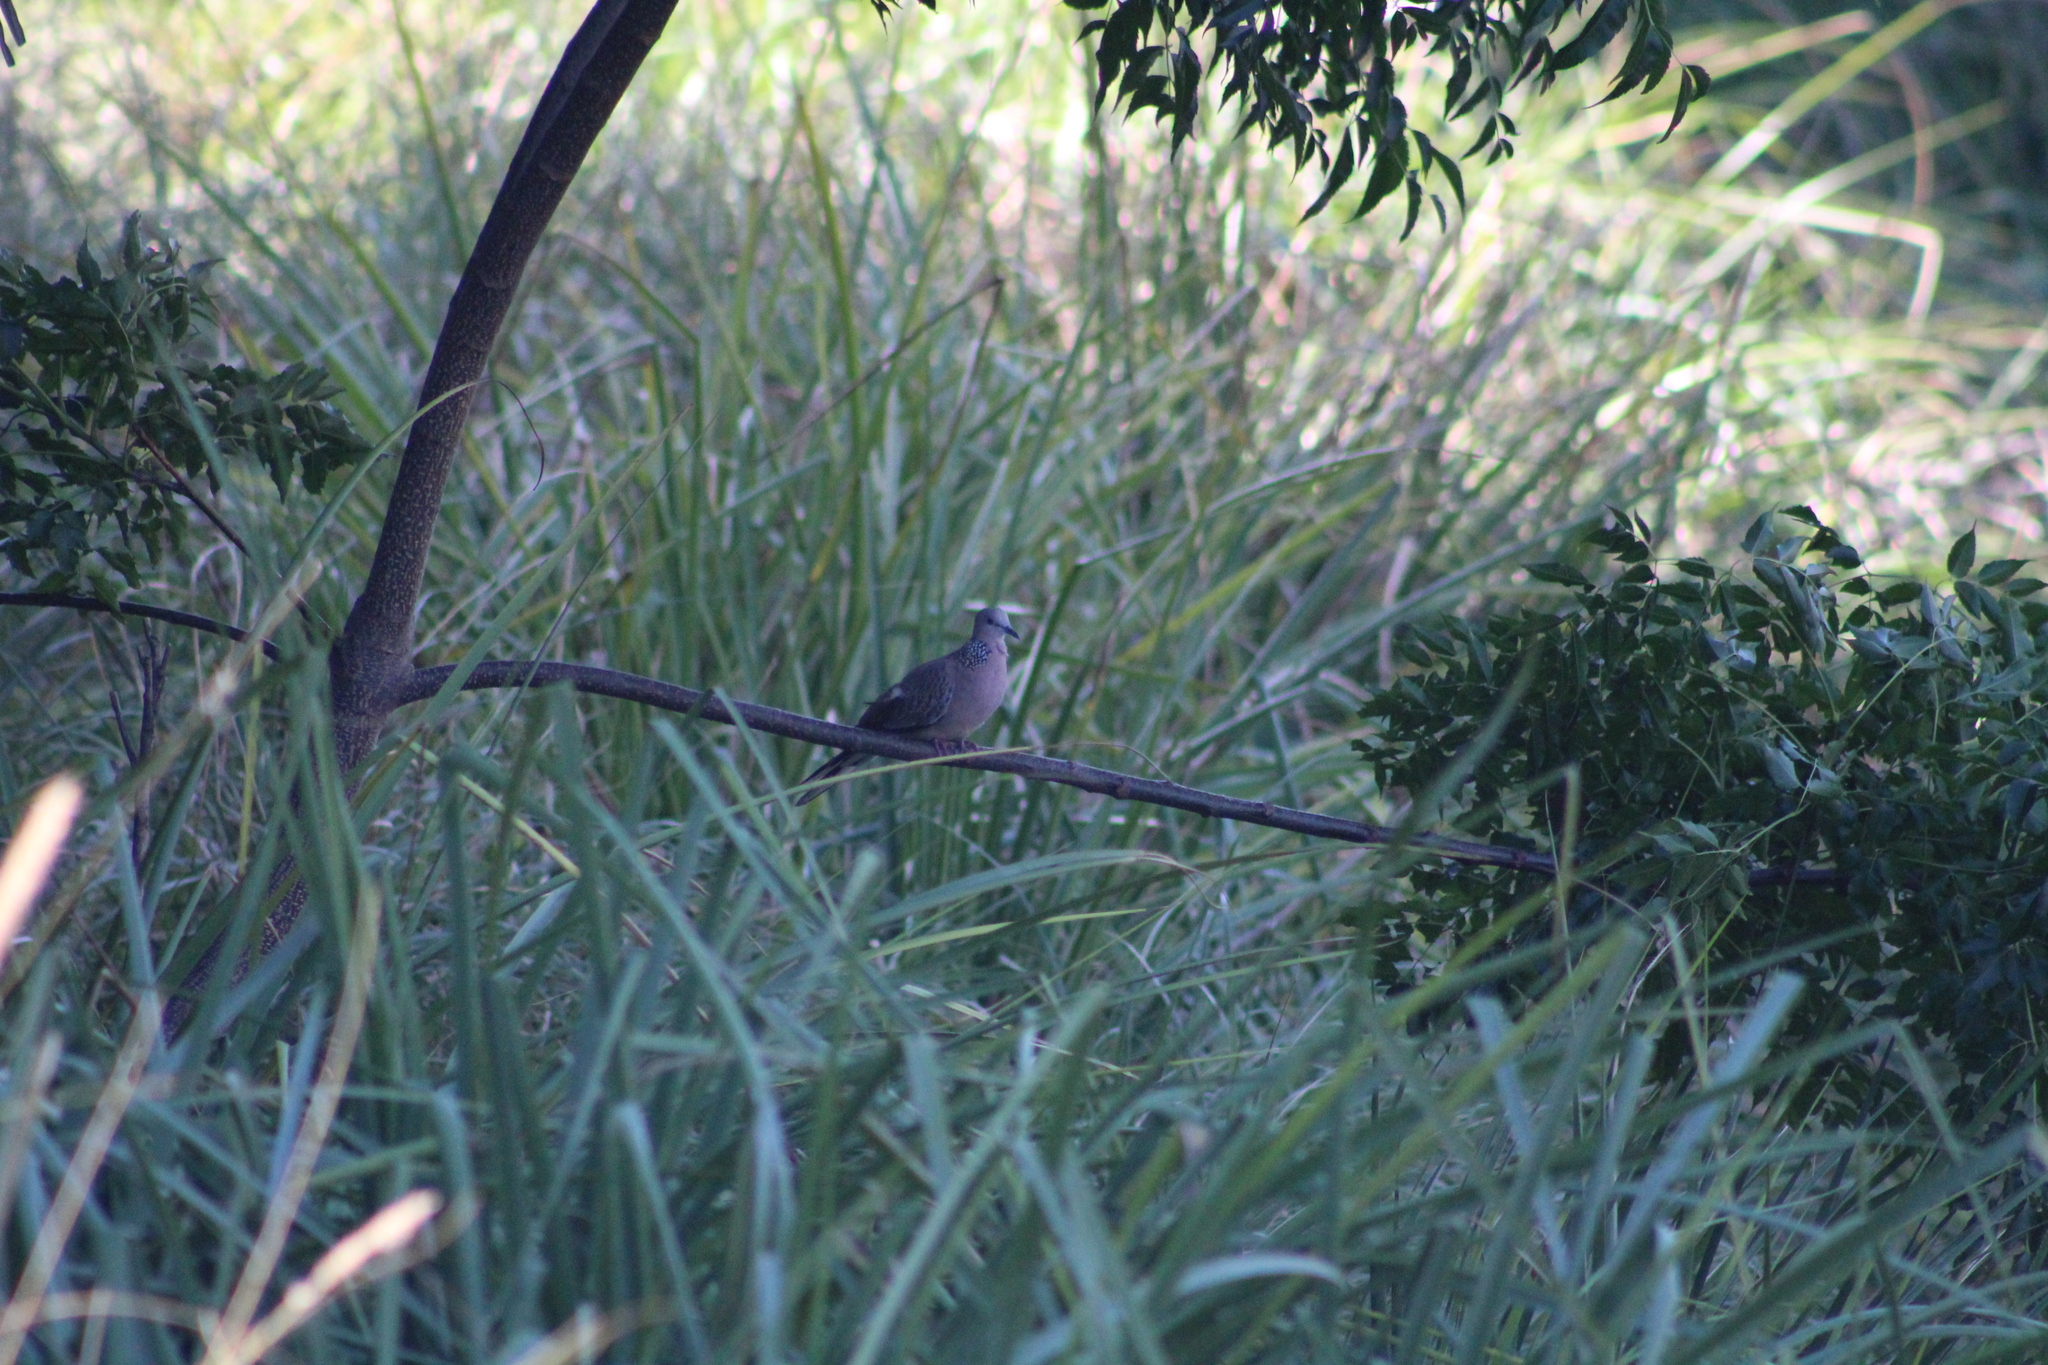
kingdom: Animalia
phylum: Chordata
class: Aves
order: Columbiformes
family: Columbidae
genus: Spilopelia
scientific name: Spilopelia chinensis
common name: Spotted dove
